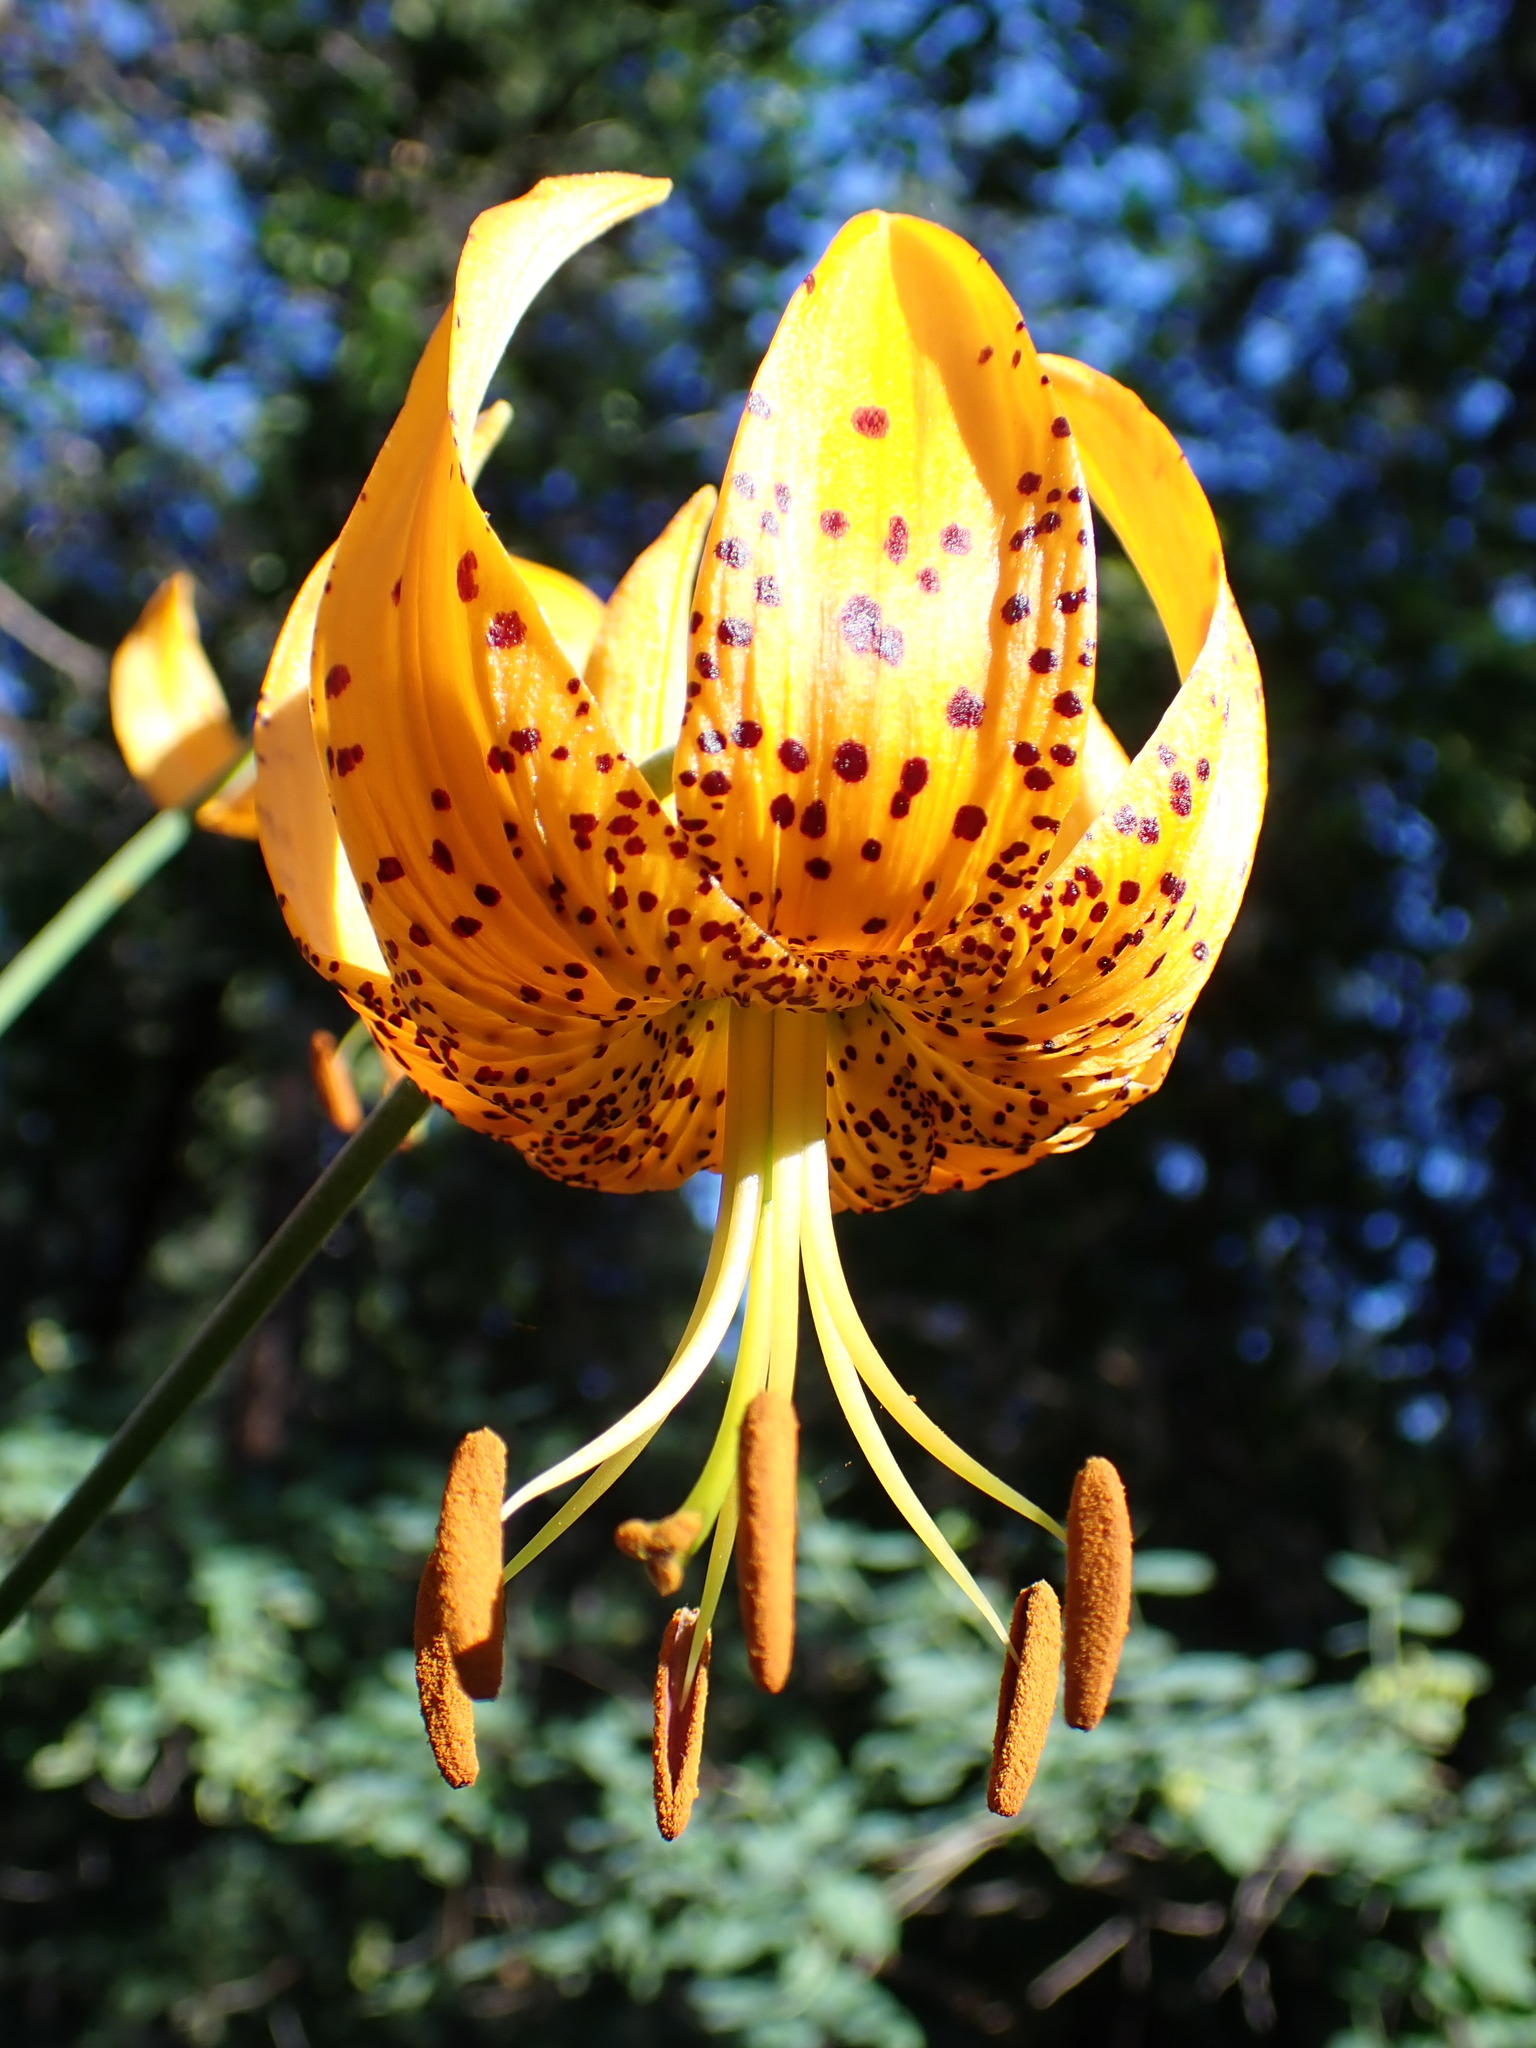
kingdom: Plantae
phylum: Tracheophyta
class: Liliopsida
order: Liliales
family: Liliaceae
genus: Lilium
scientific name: Lilium humboldtii
